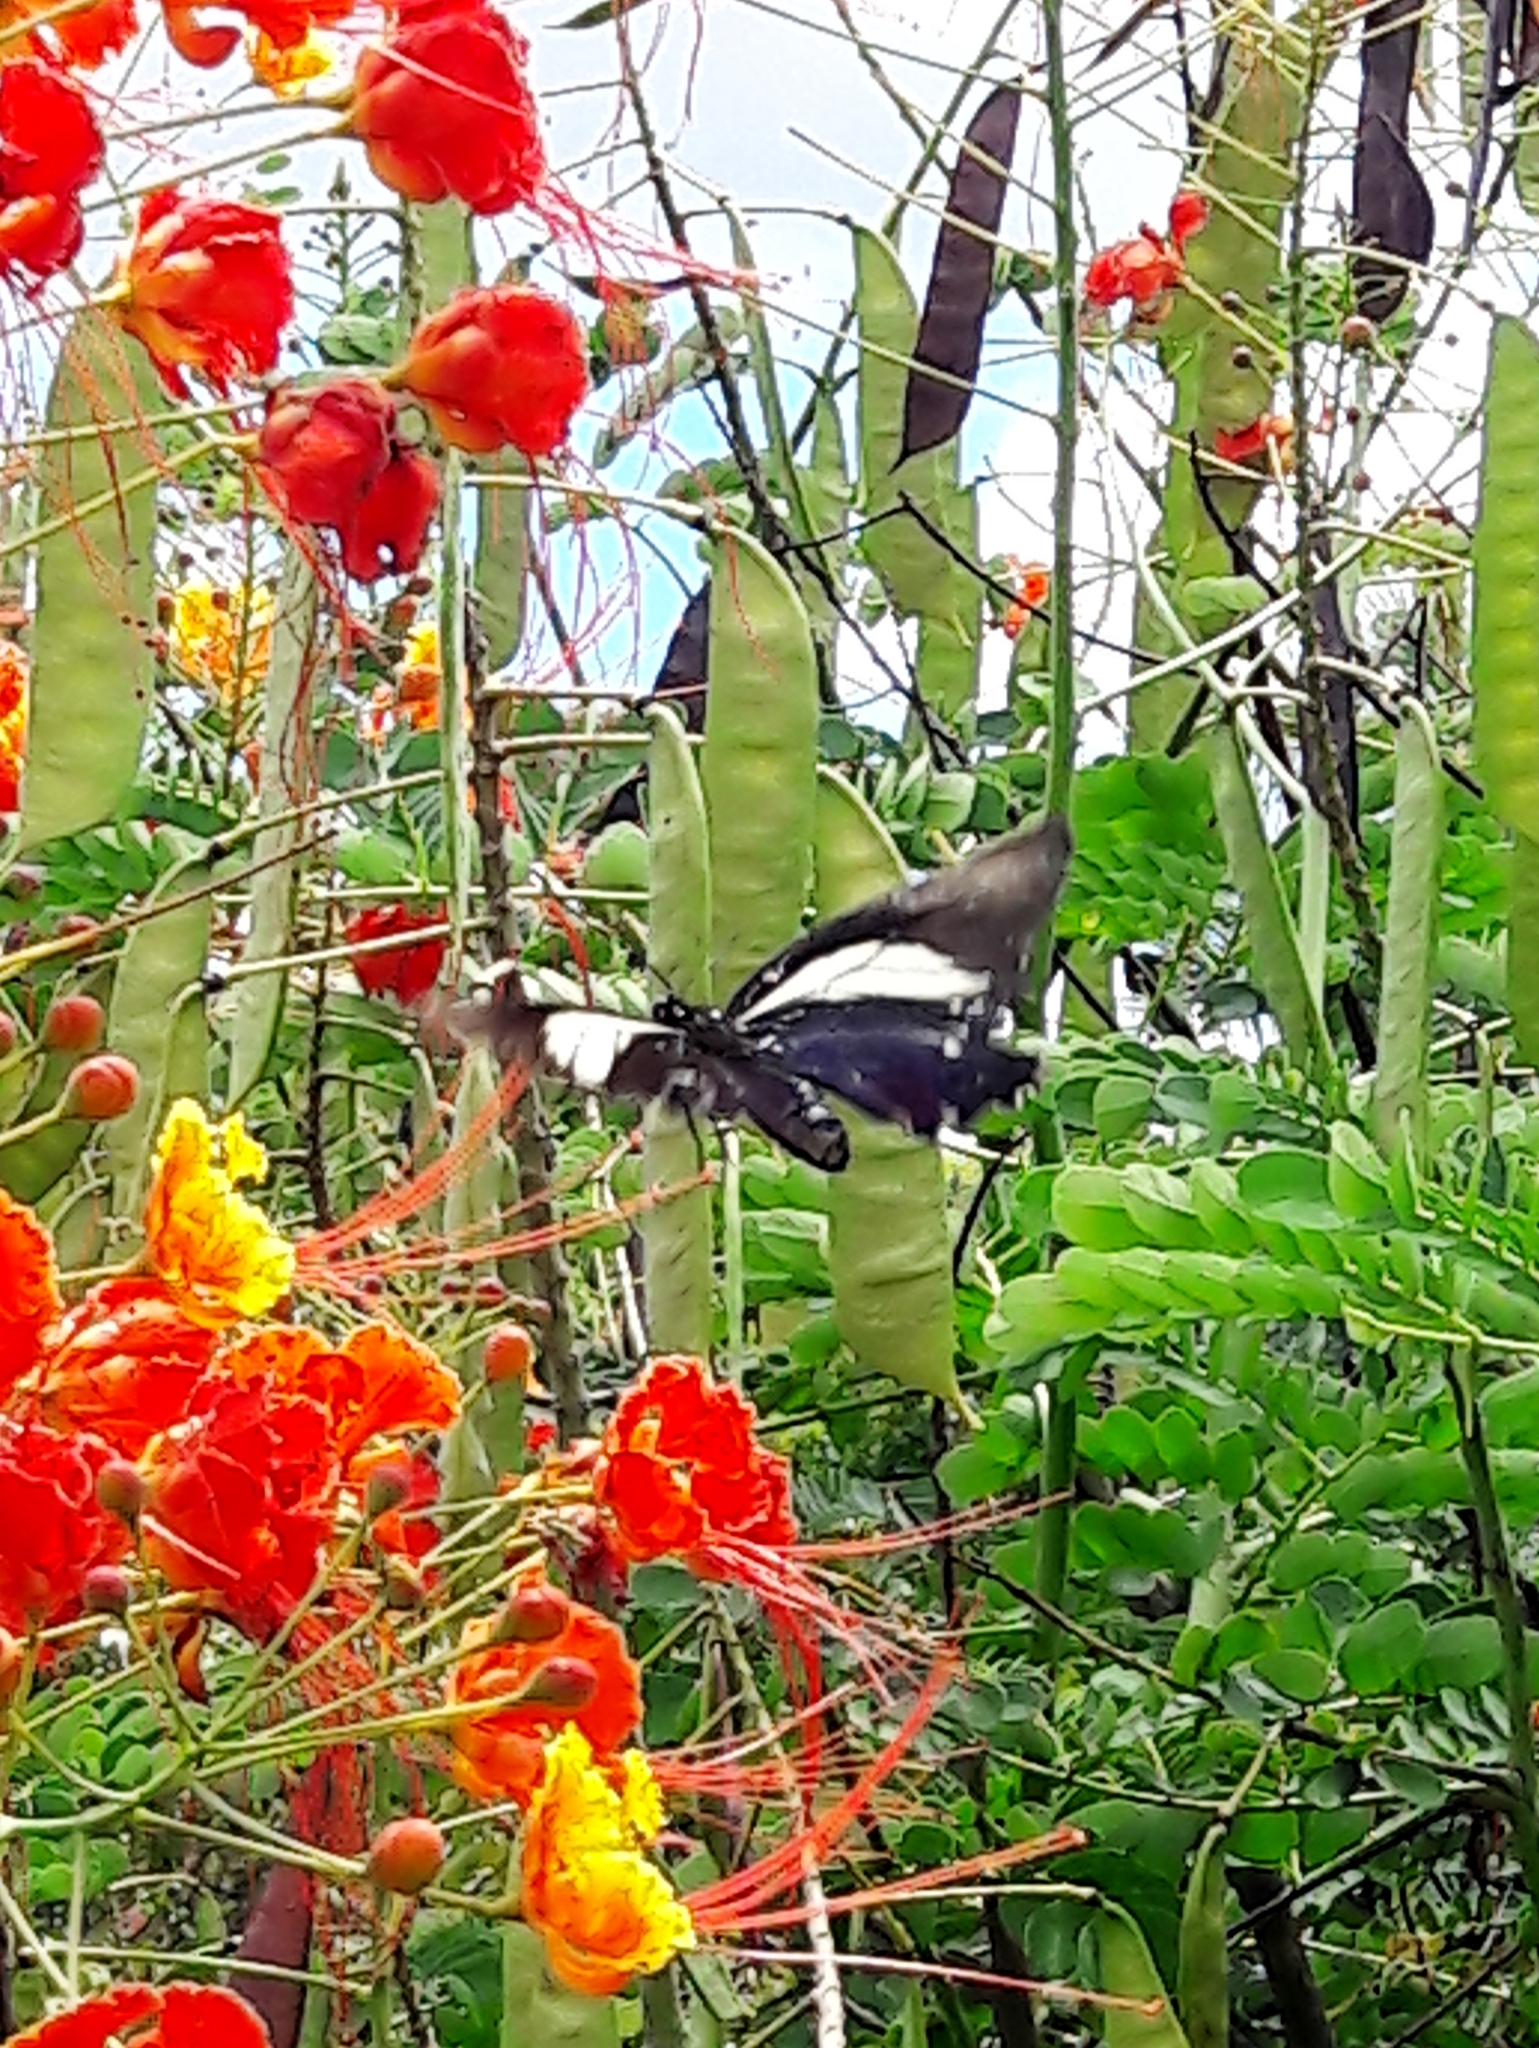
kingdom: Animalia
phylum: Arthropoda
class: Insecta
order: Lepidoptera
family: Papilionidae
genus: Battus
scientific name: Battus crassus
